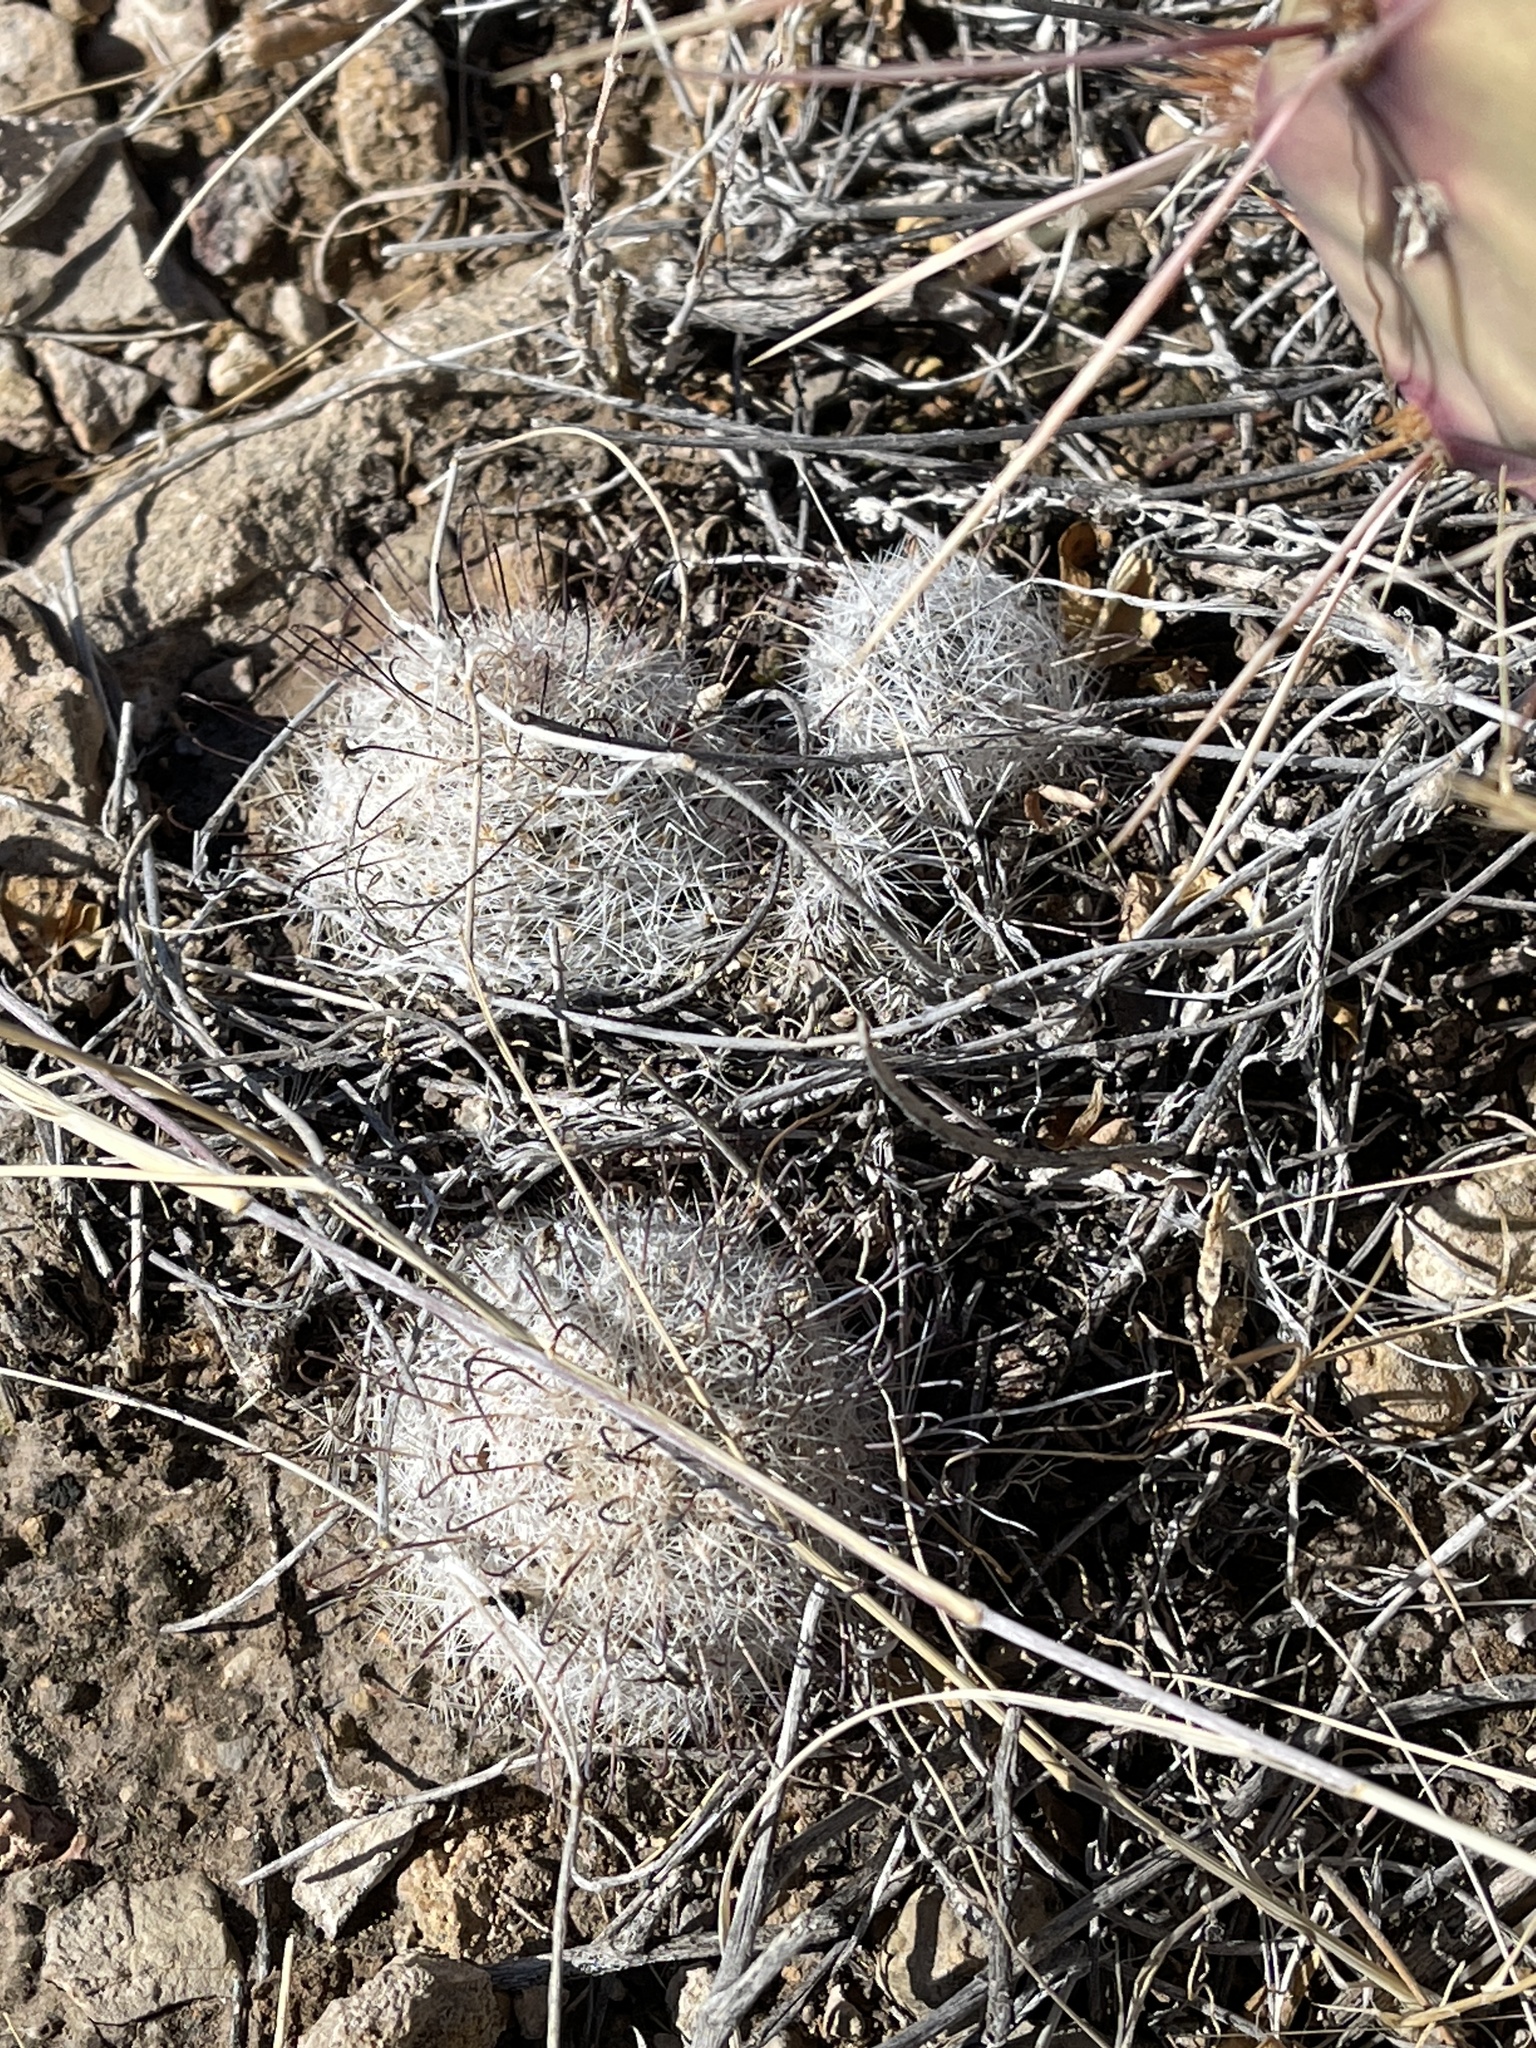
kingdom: Plantae
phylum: Tracheophyta
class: Magnoliopsida
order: Caryophyllales
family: Cactaceae
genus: Cochemiea
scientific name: Cochemiea grahamii
